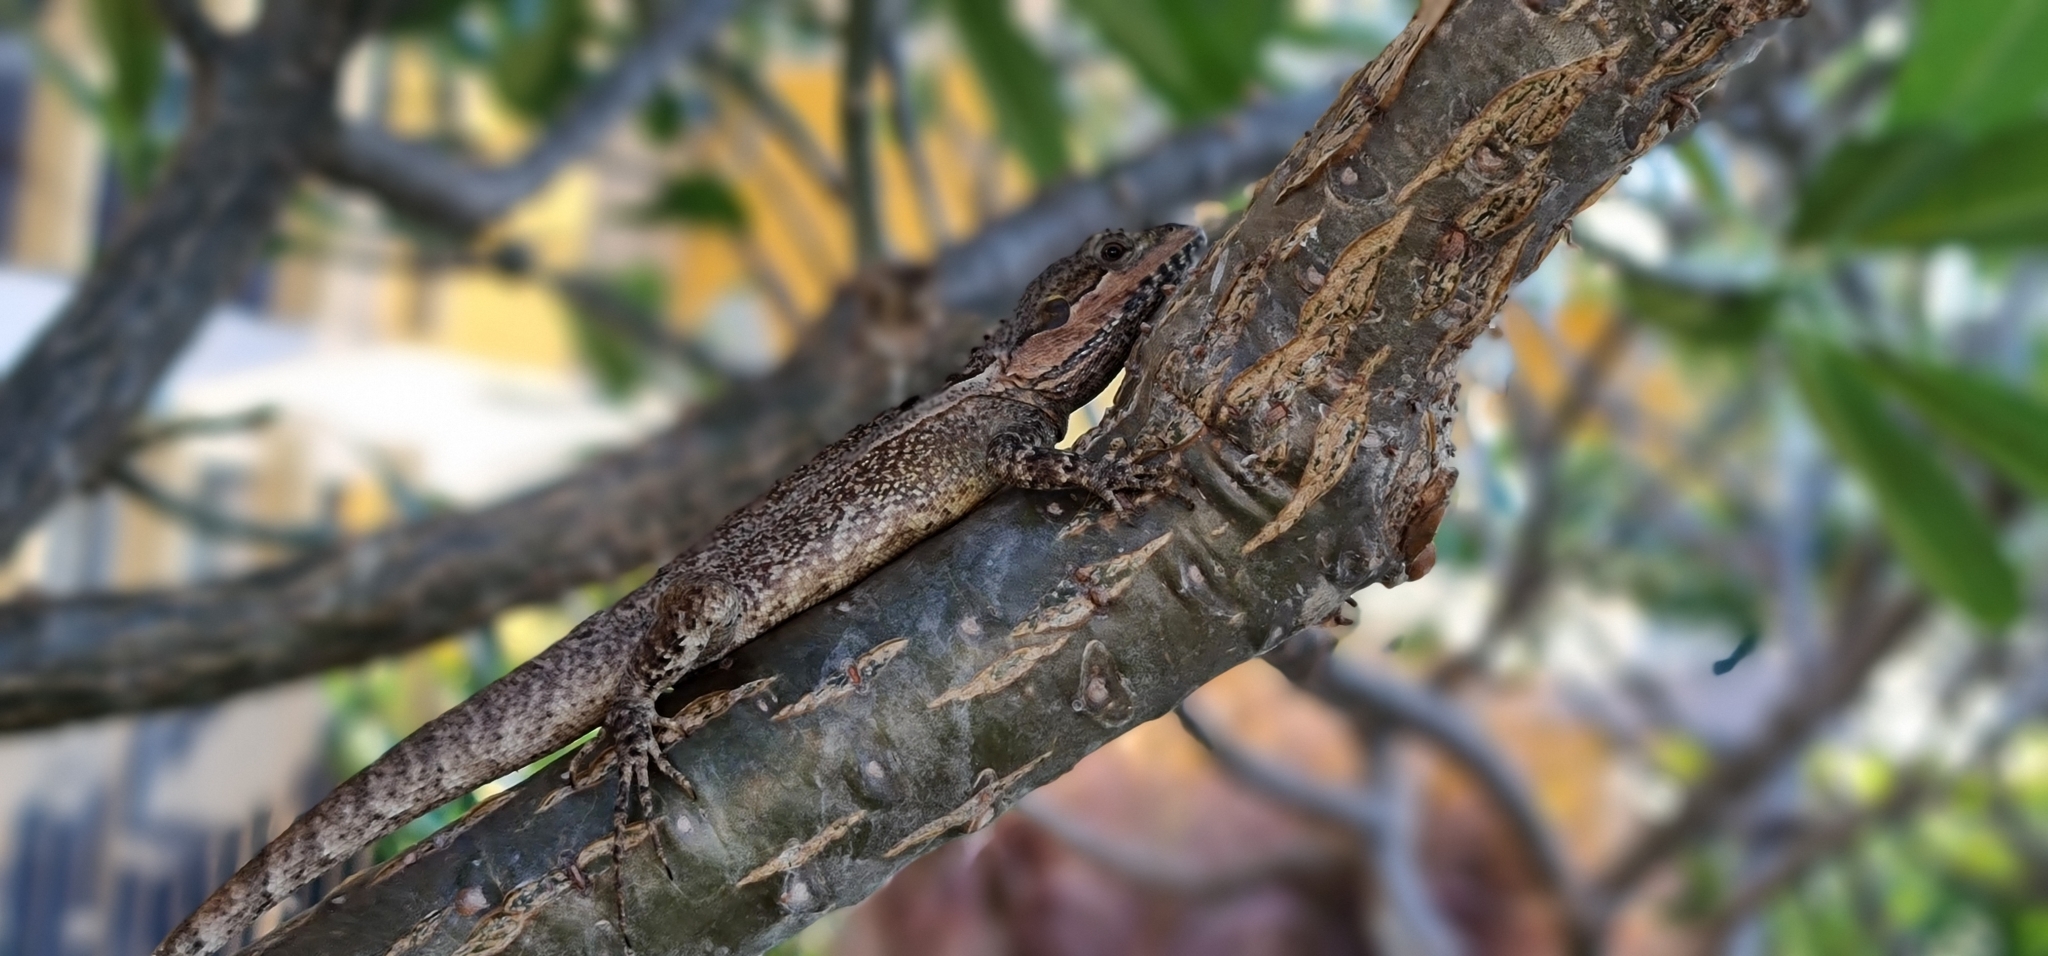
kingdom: Animalia
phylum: Chordata
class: Squamata
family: Agamidae
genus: Tropicagama
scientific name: Tropicagama temporalis
